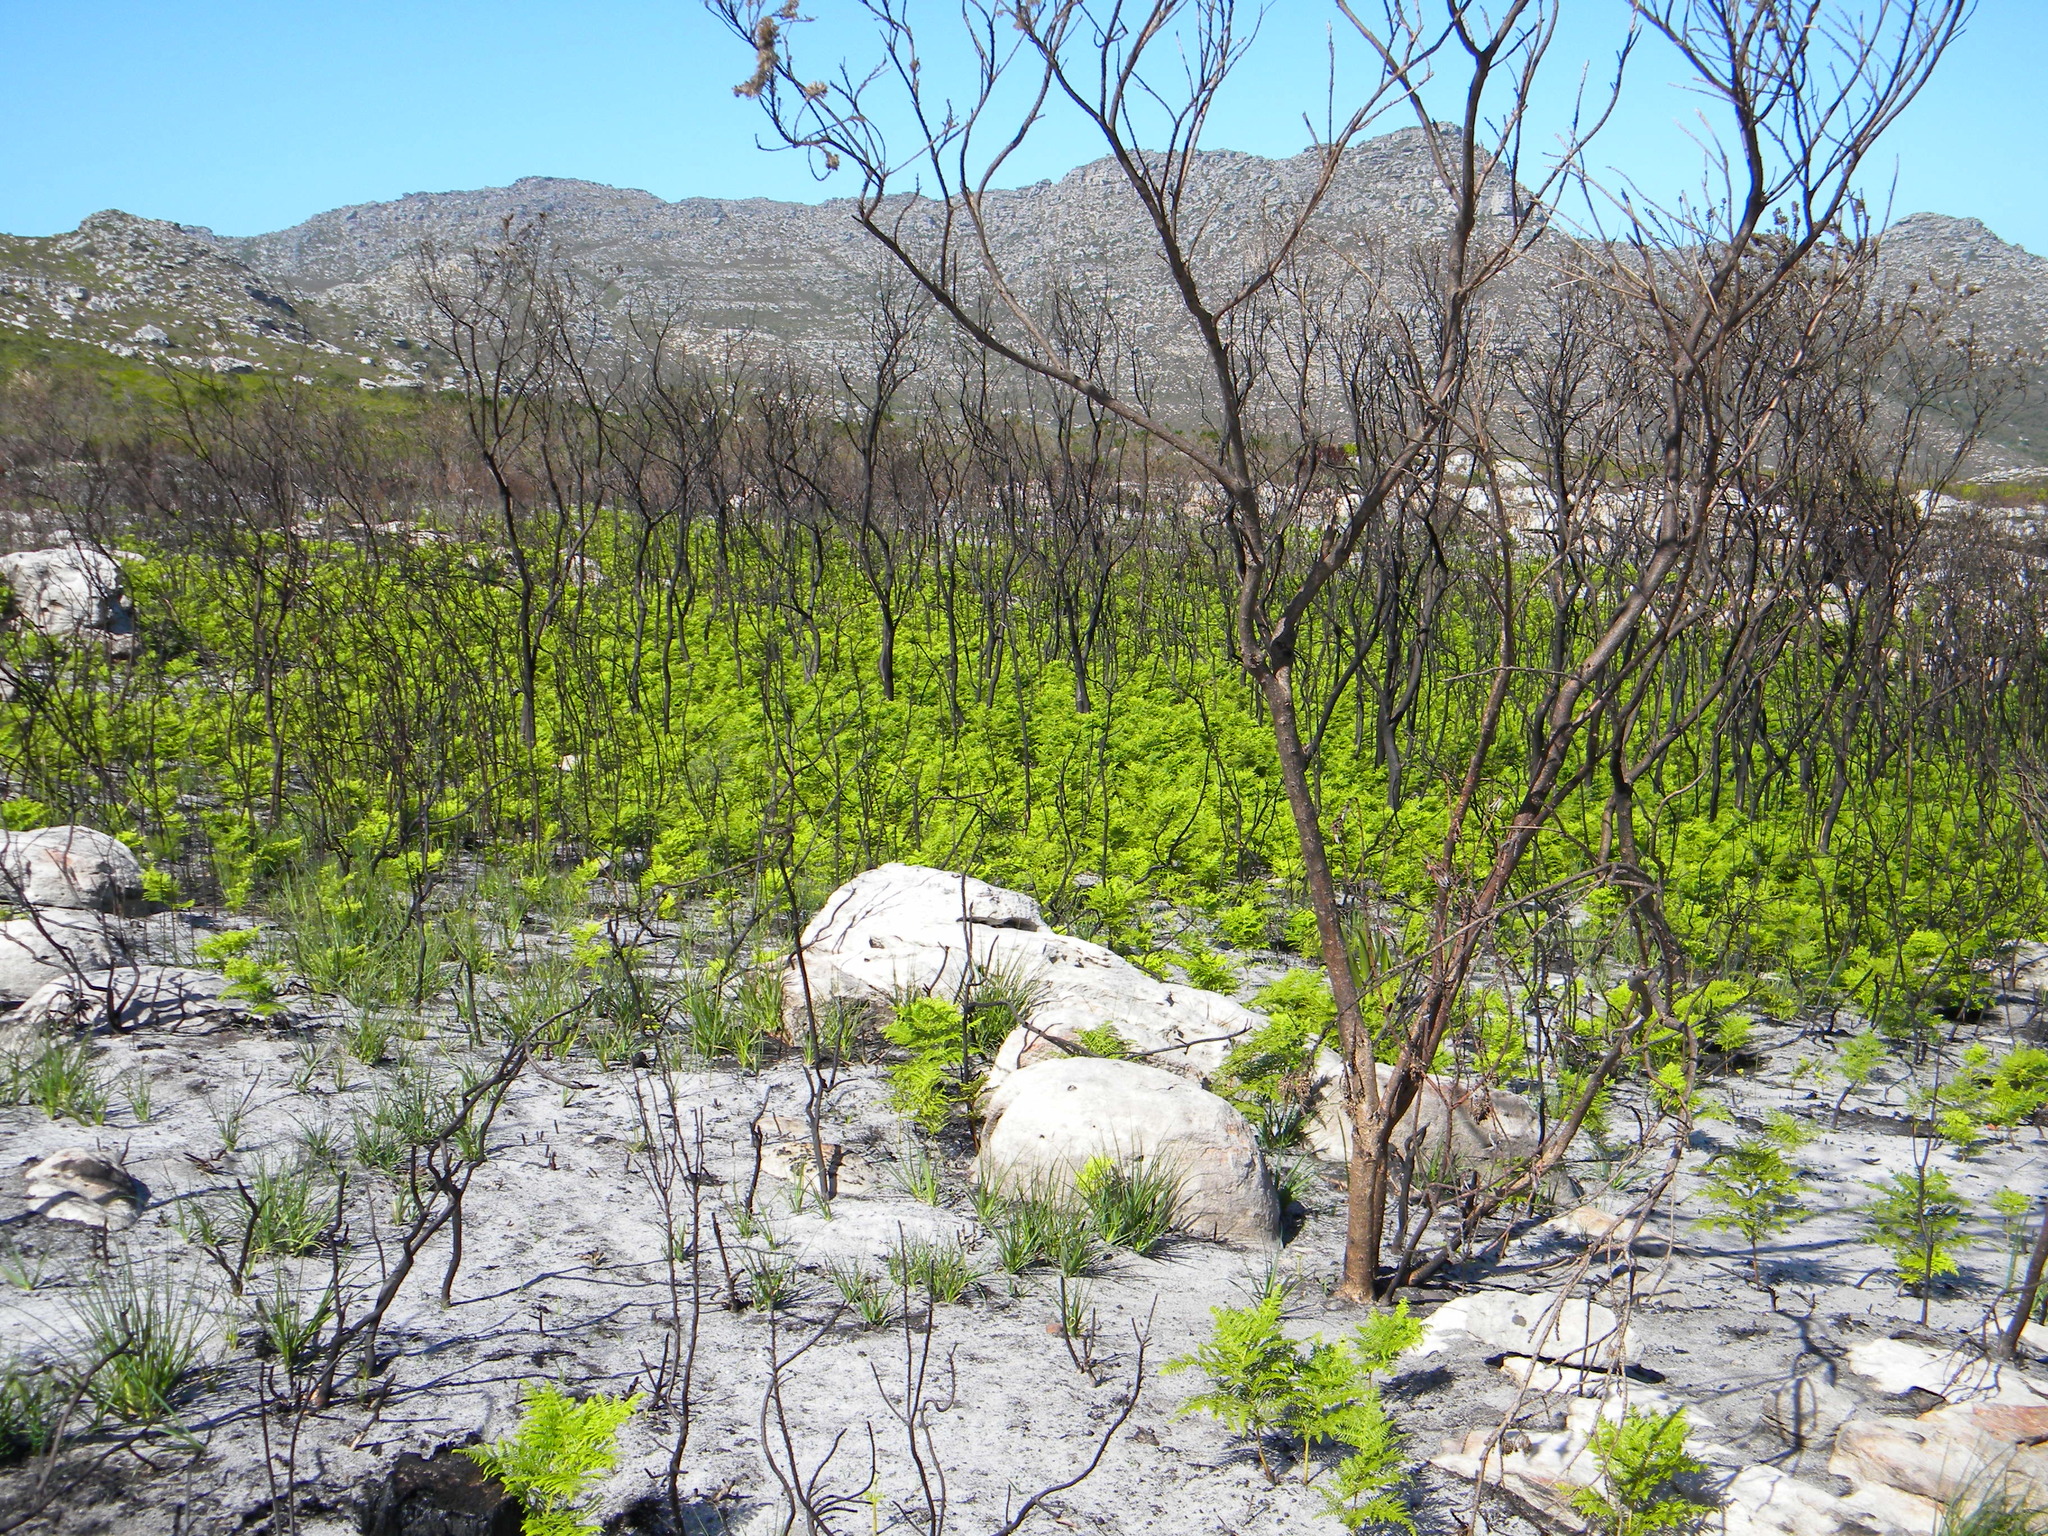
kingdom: Plantae
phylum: Tracheophyta
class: Polypodiopsida
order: Polypodiales
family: Dennstaedtiaceae
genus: Pteridium
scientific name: Pteridium aquilinum
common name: Bracken
